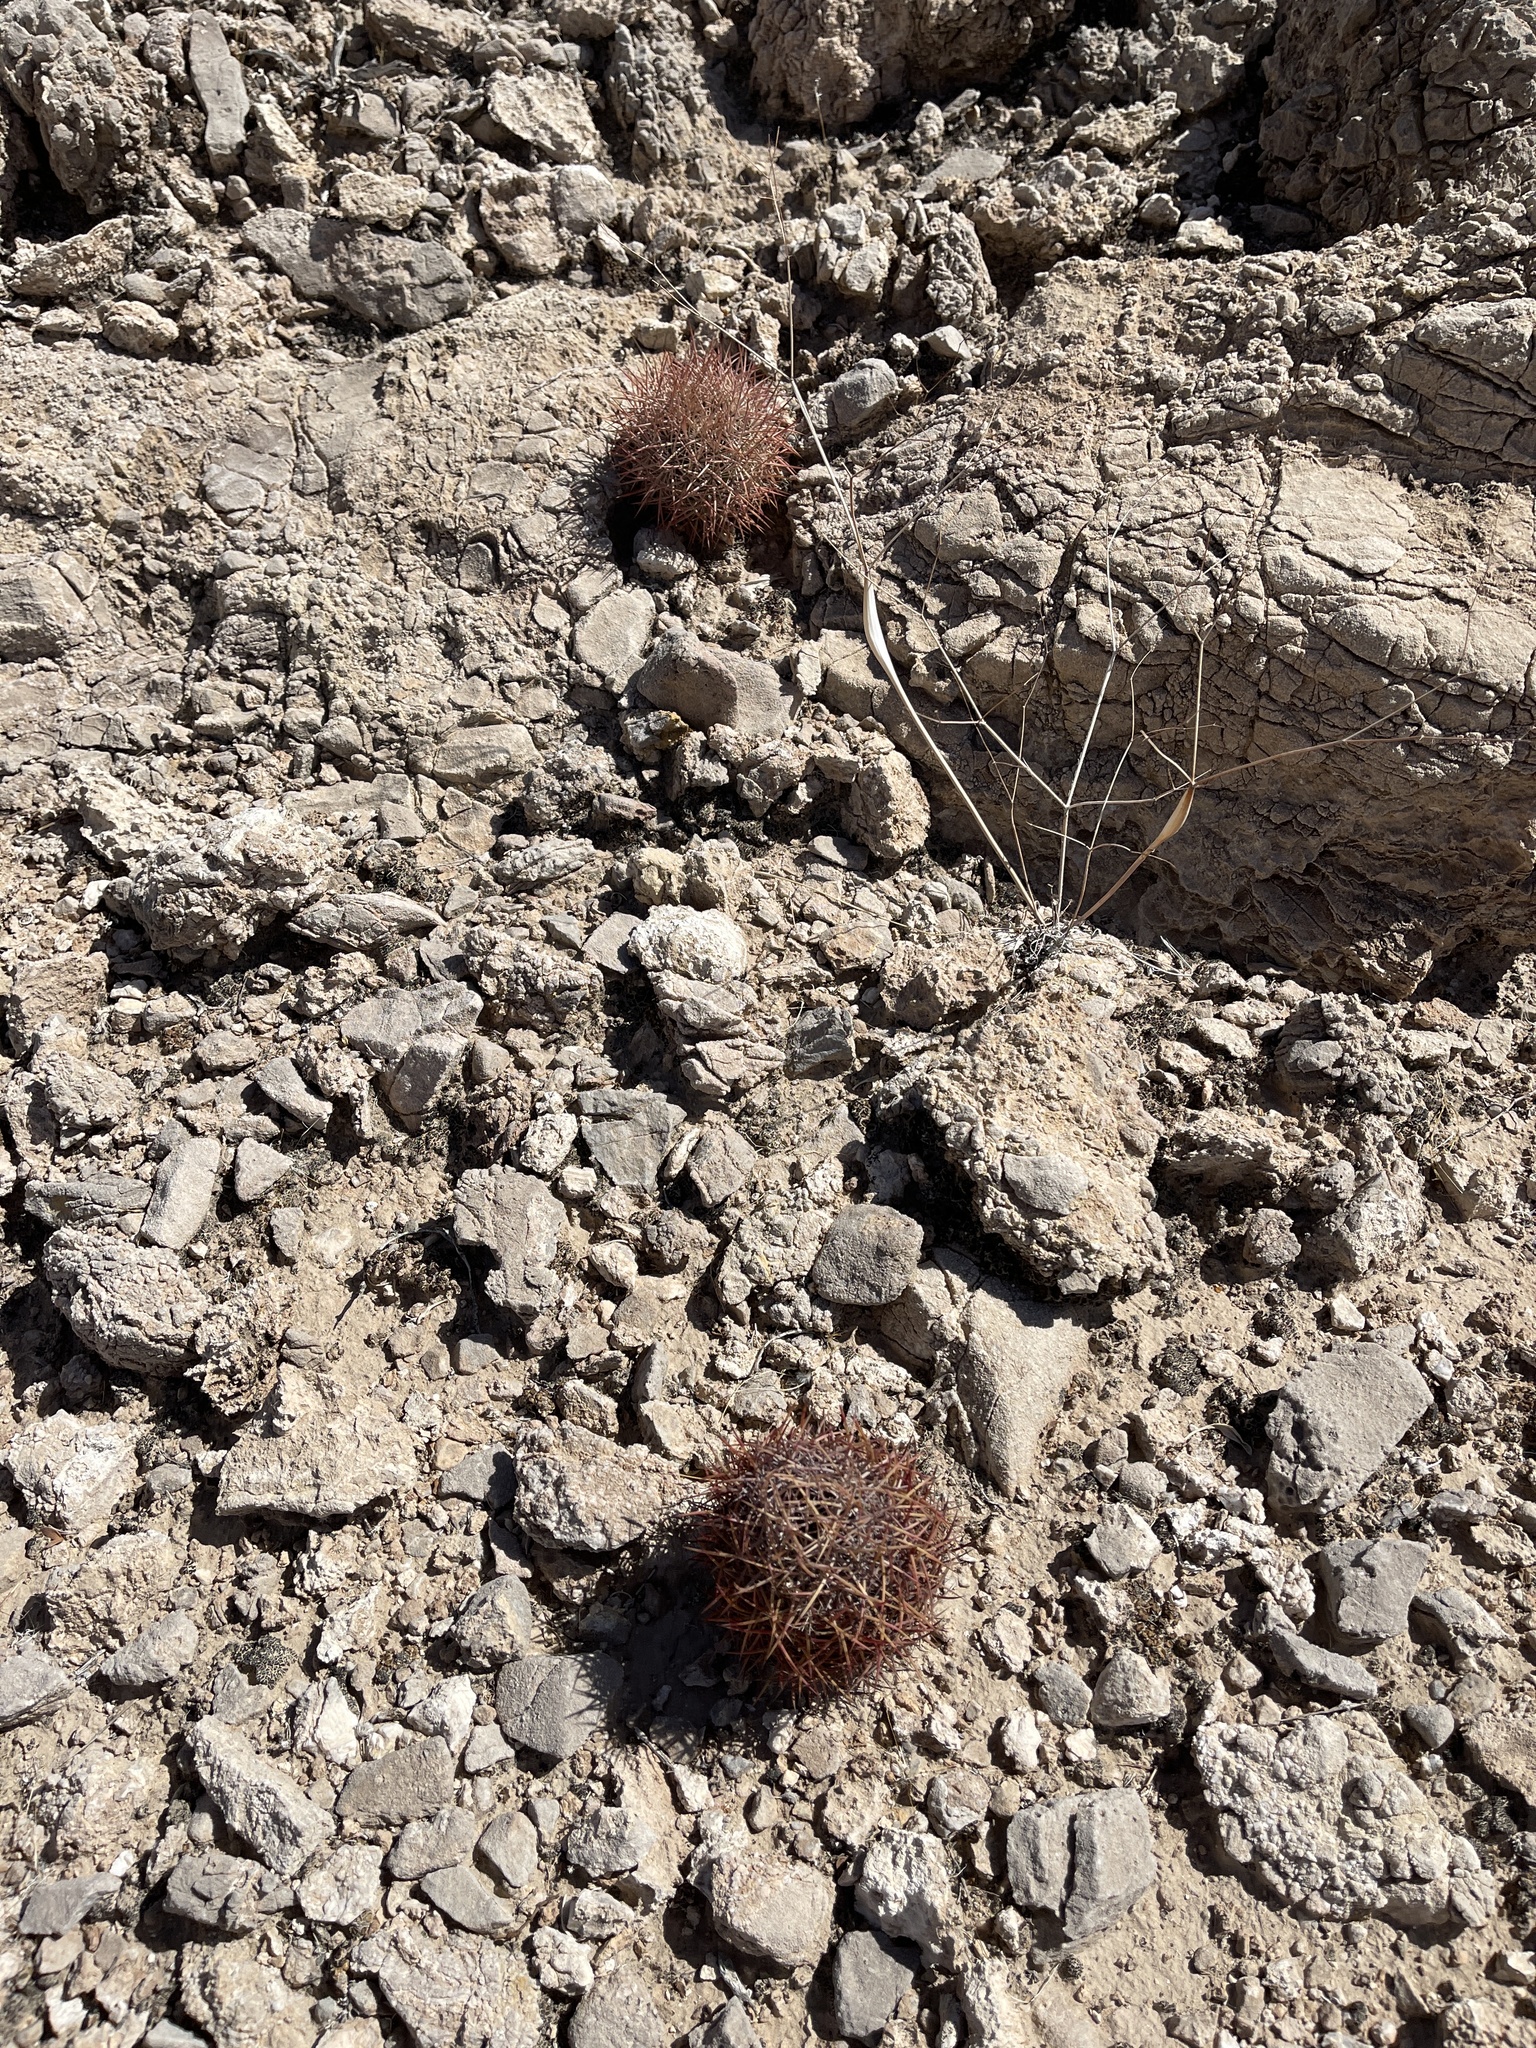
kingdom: Plantae
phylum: Tracheophyta
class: Magnoliopsida
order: Caryophyllales
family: Cactaceae
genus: Sclerocactus
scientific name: Sclerocactus johnsonii
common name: Eight-spine fishhook cactus
